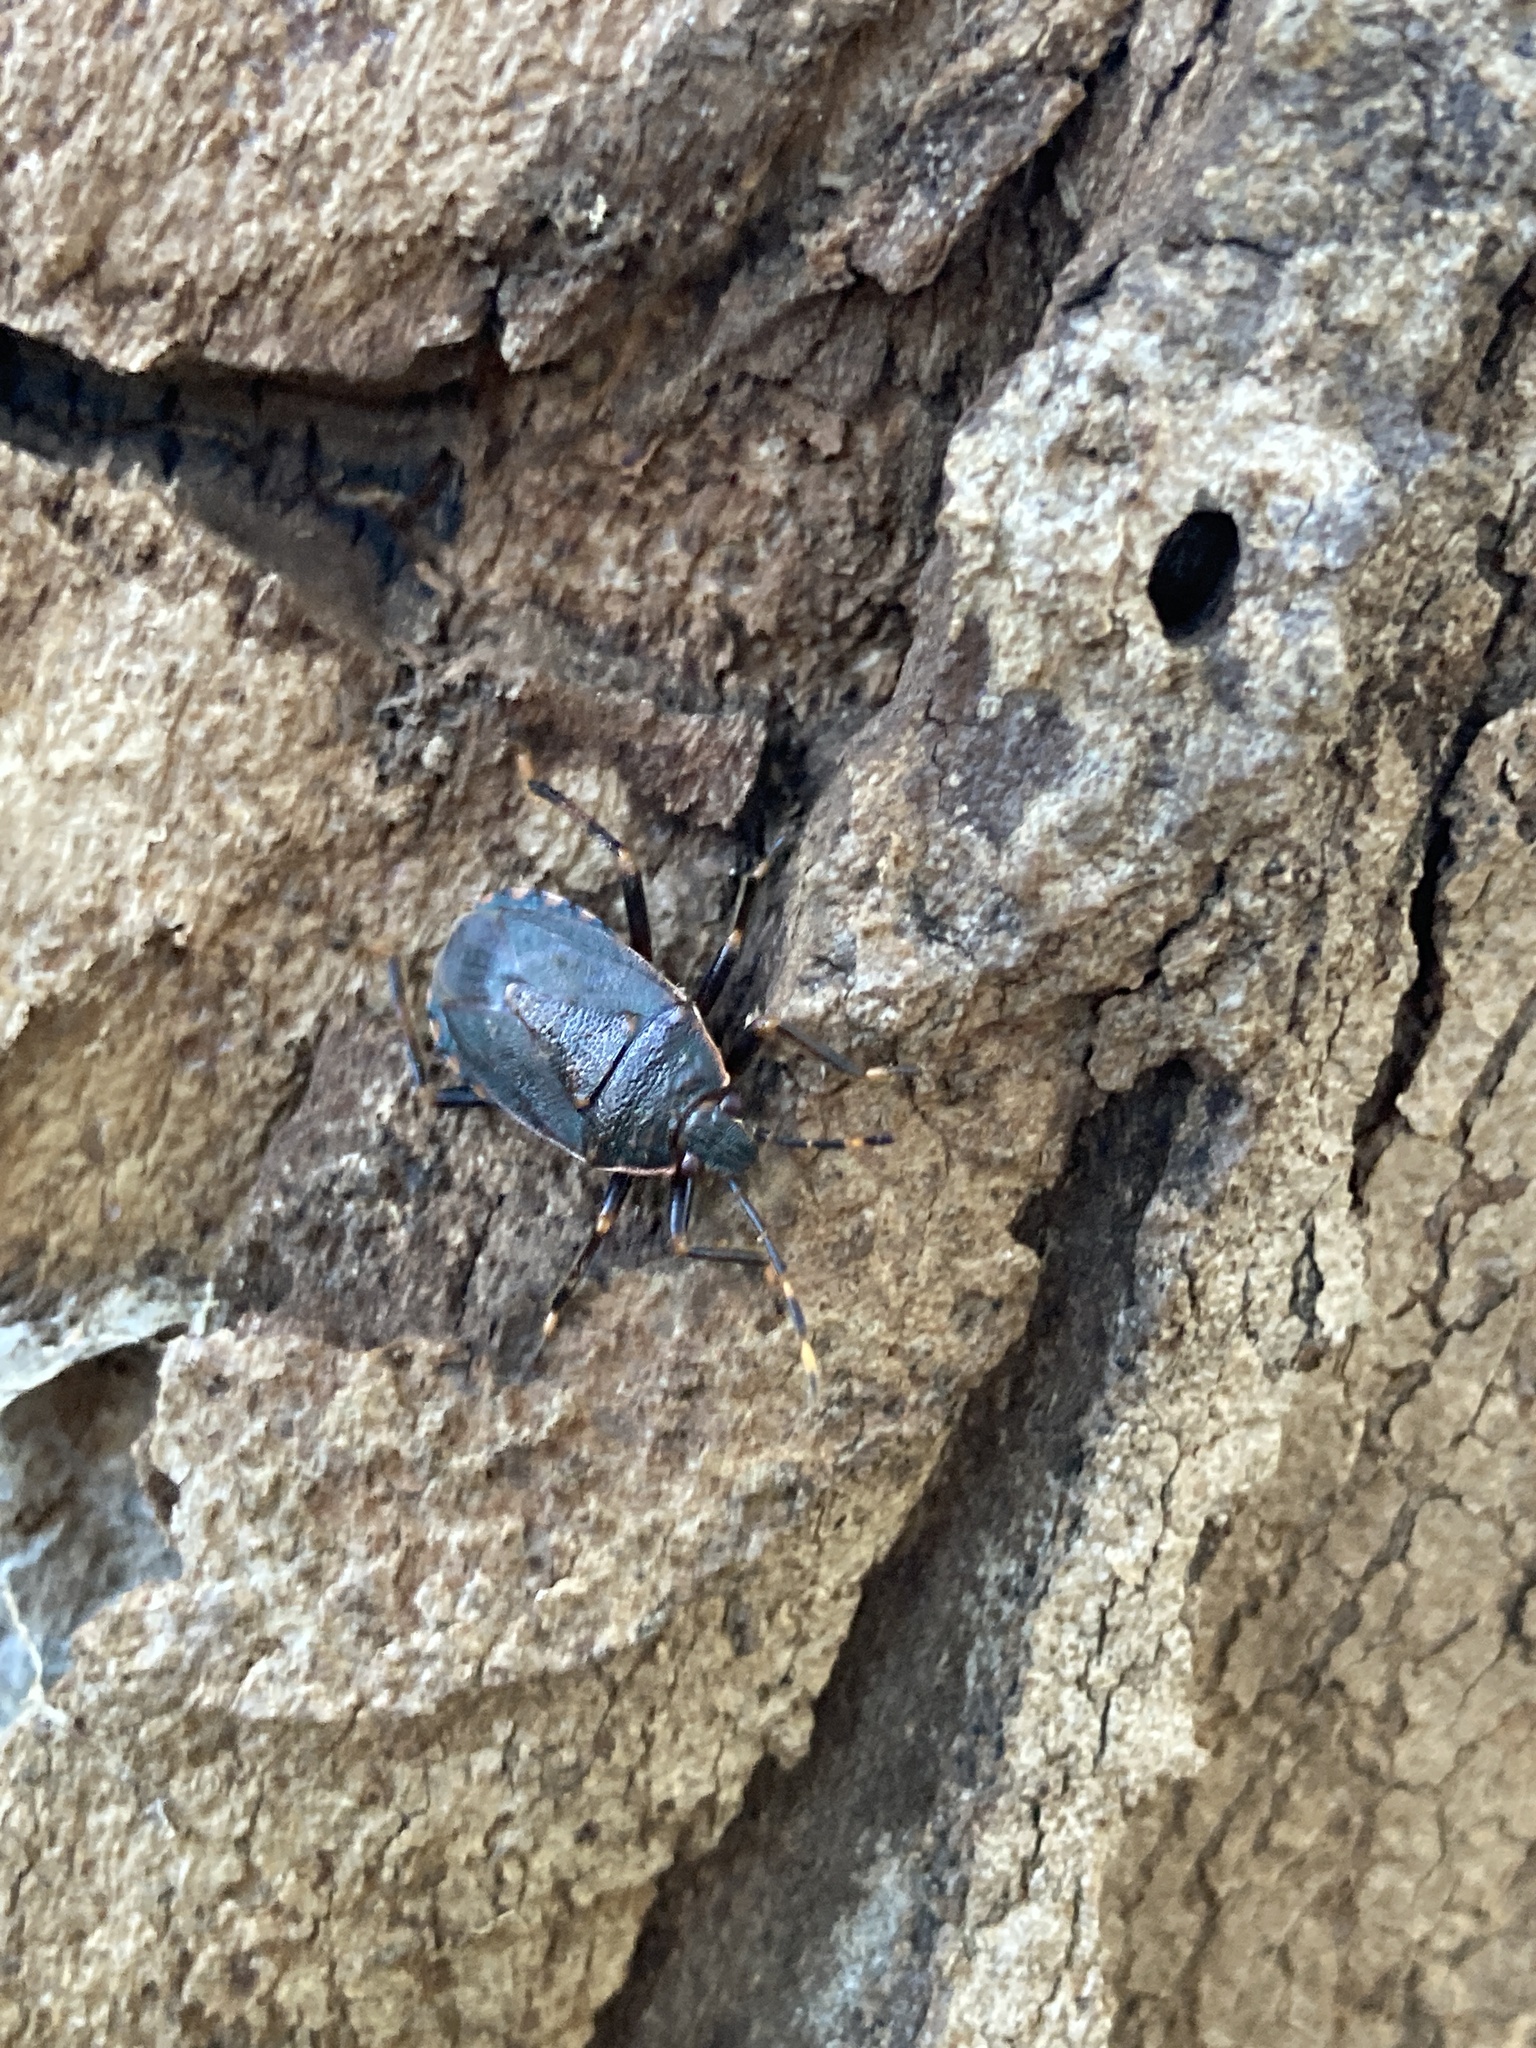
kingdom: Animalia
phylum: Arthropoda
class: Insecta
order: Hemiptera
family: Pentatomidae
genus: Notius
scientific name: Notius
